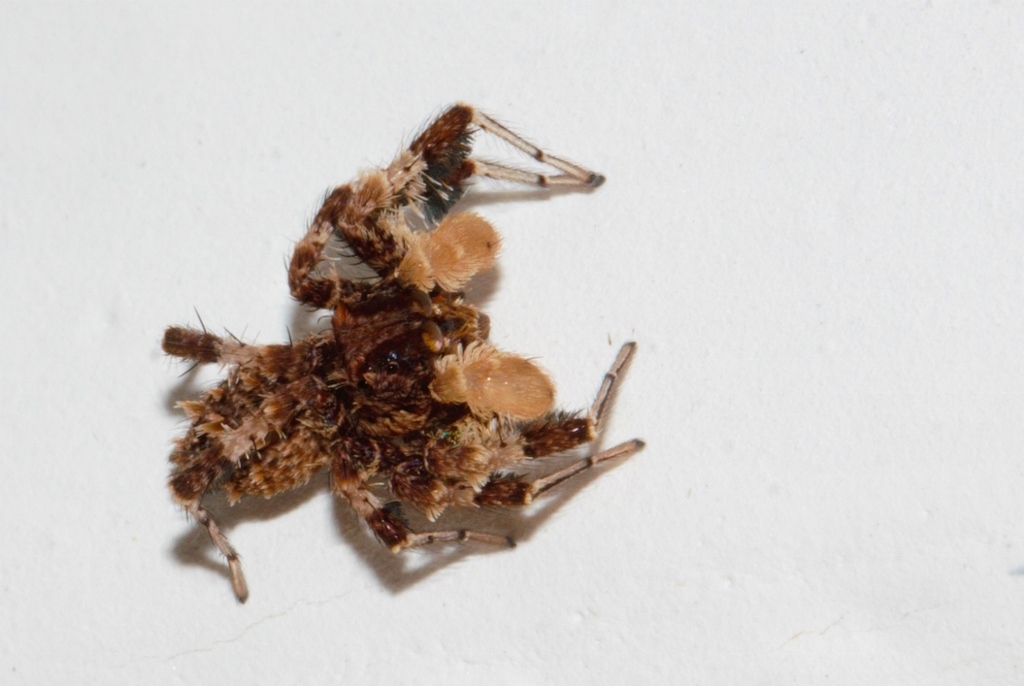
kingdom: Animalia
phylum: Arthropoda
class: Arachnida
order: Araneae
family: Salticidae
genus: Portia
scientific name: Portia schultzi
